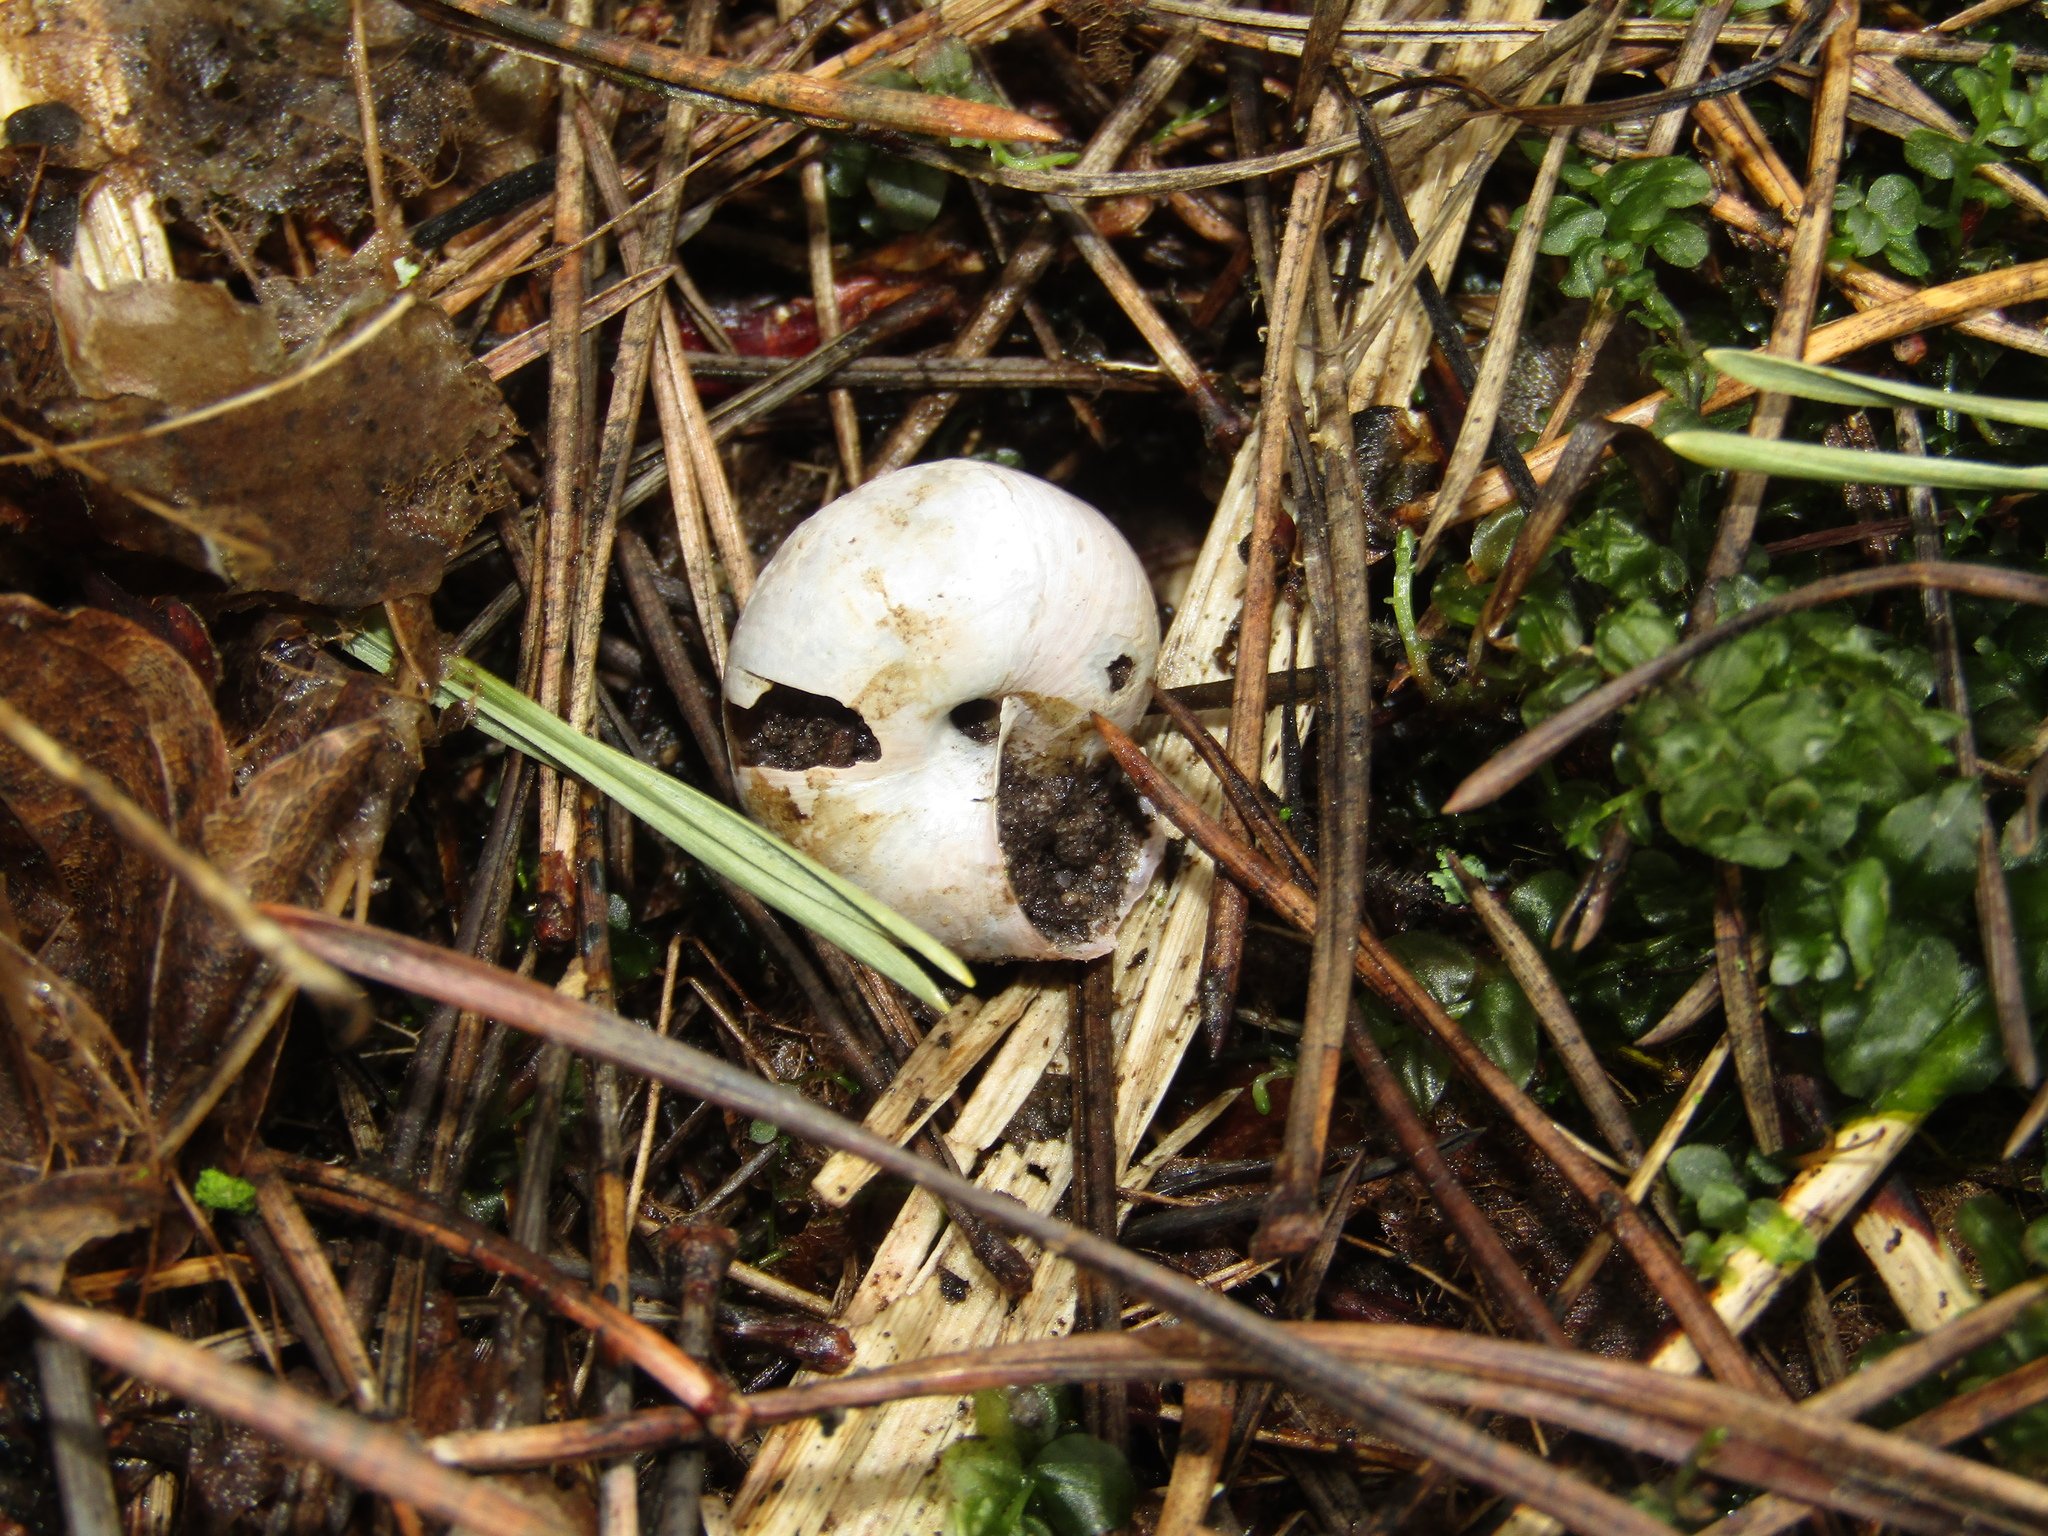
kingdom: Animalia
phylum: Mollusca
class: Gastropoda
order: Stylommatophora
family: Camaenidae
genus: Fruticicola
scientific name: Fruticicola fruticum
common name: Bush snail
